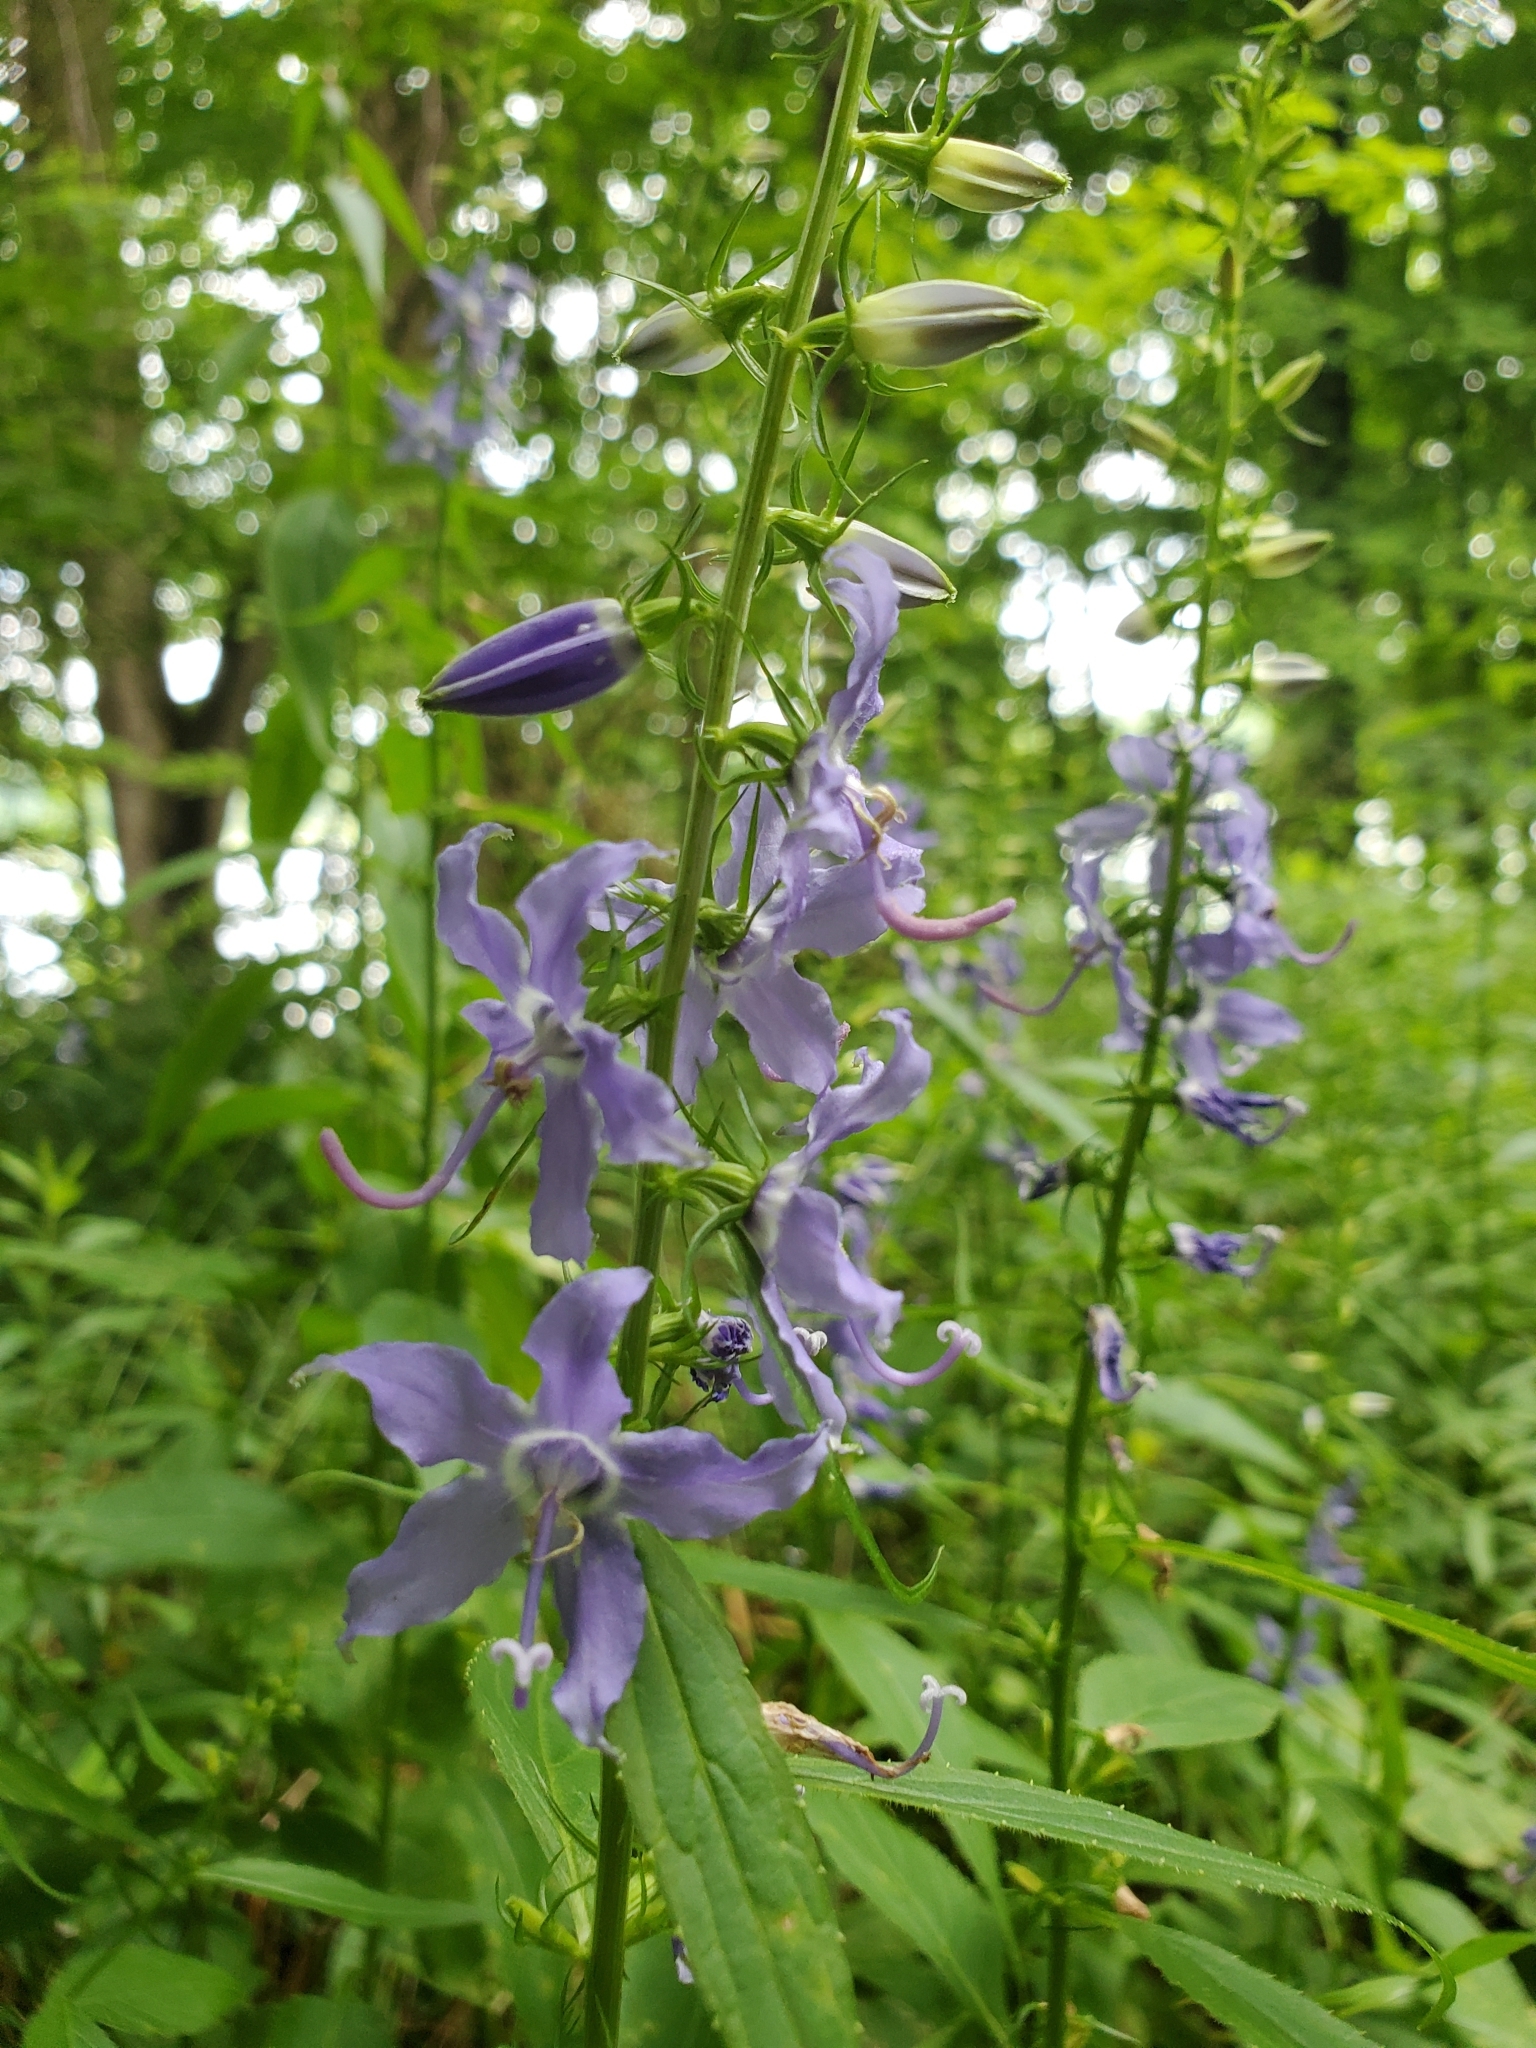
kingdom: Plantae
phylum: Tracheophyta
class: Magnoliopsida
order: Asterales
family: Campanulaceae
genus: Campanulastrum
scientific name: Campanulastrum americanum
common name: American bellflower
